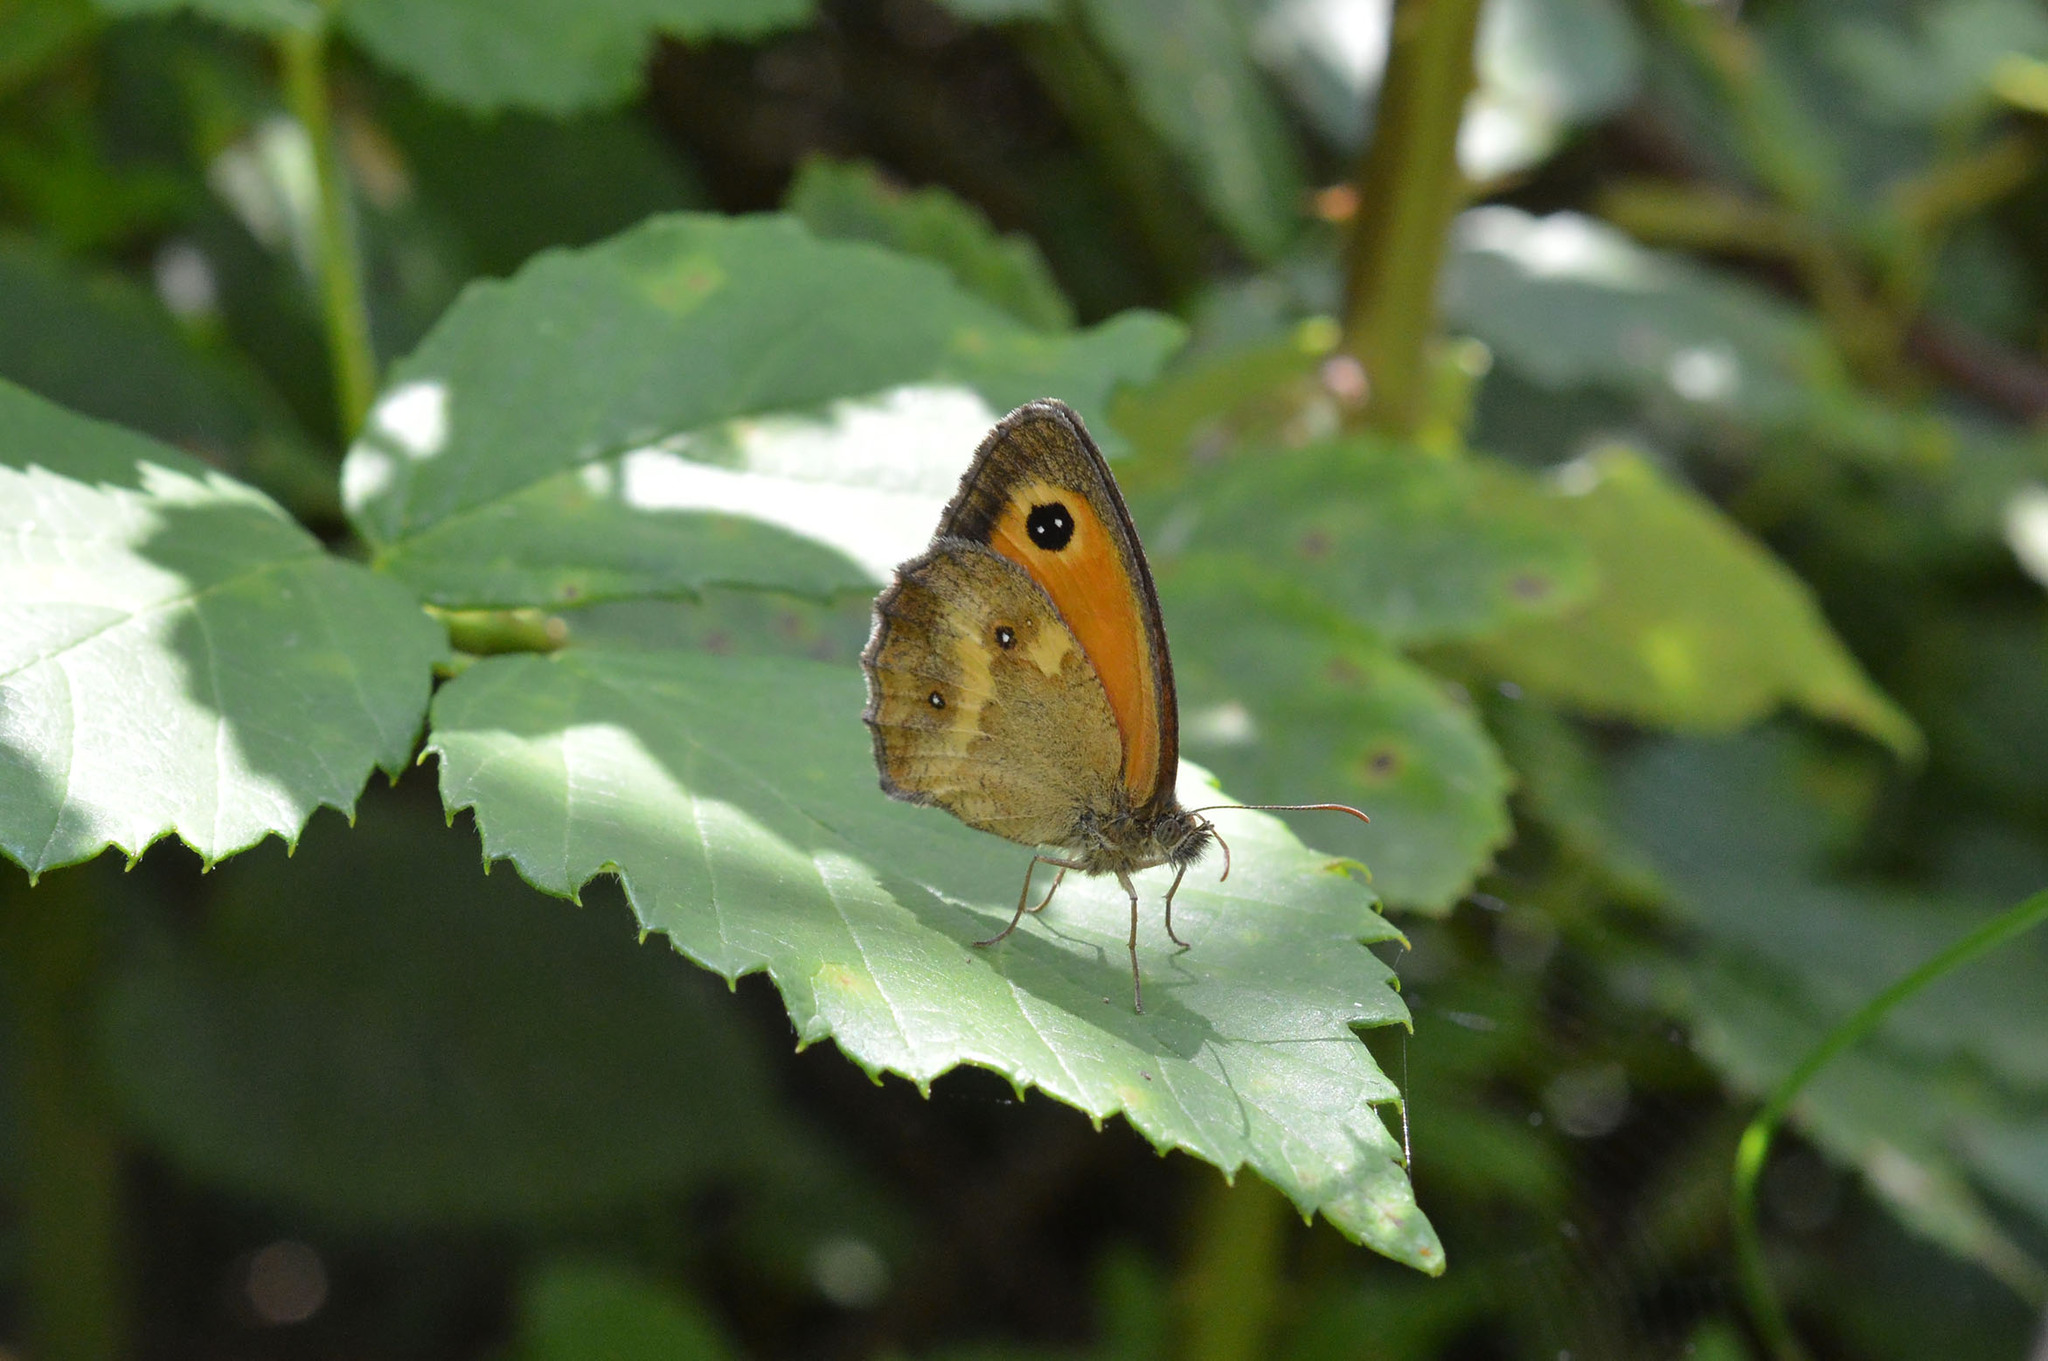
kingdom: Animalia
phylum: Arthropoda
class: Insecta
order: Lepidoptera
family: Nymphalidae
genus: Pyronia
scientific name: Pyronia tithonus
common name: Gatekeeper
